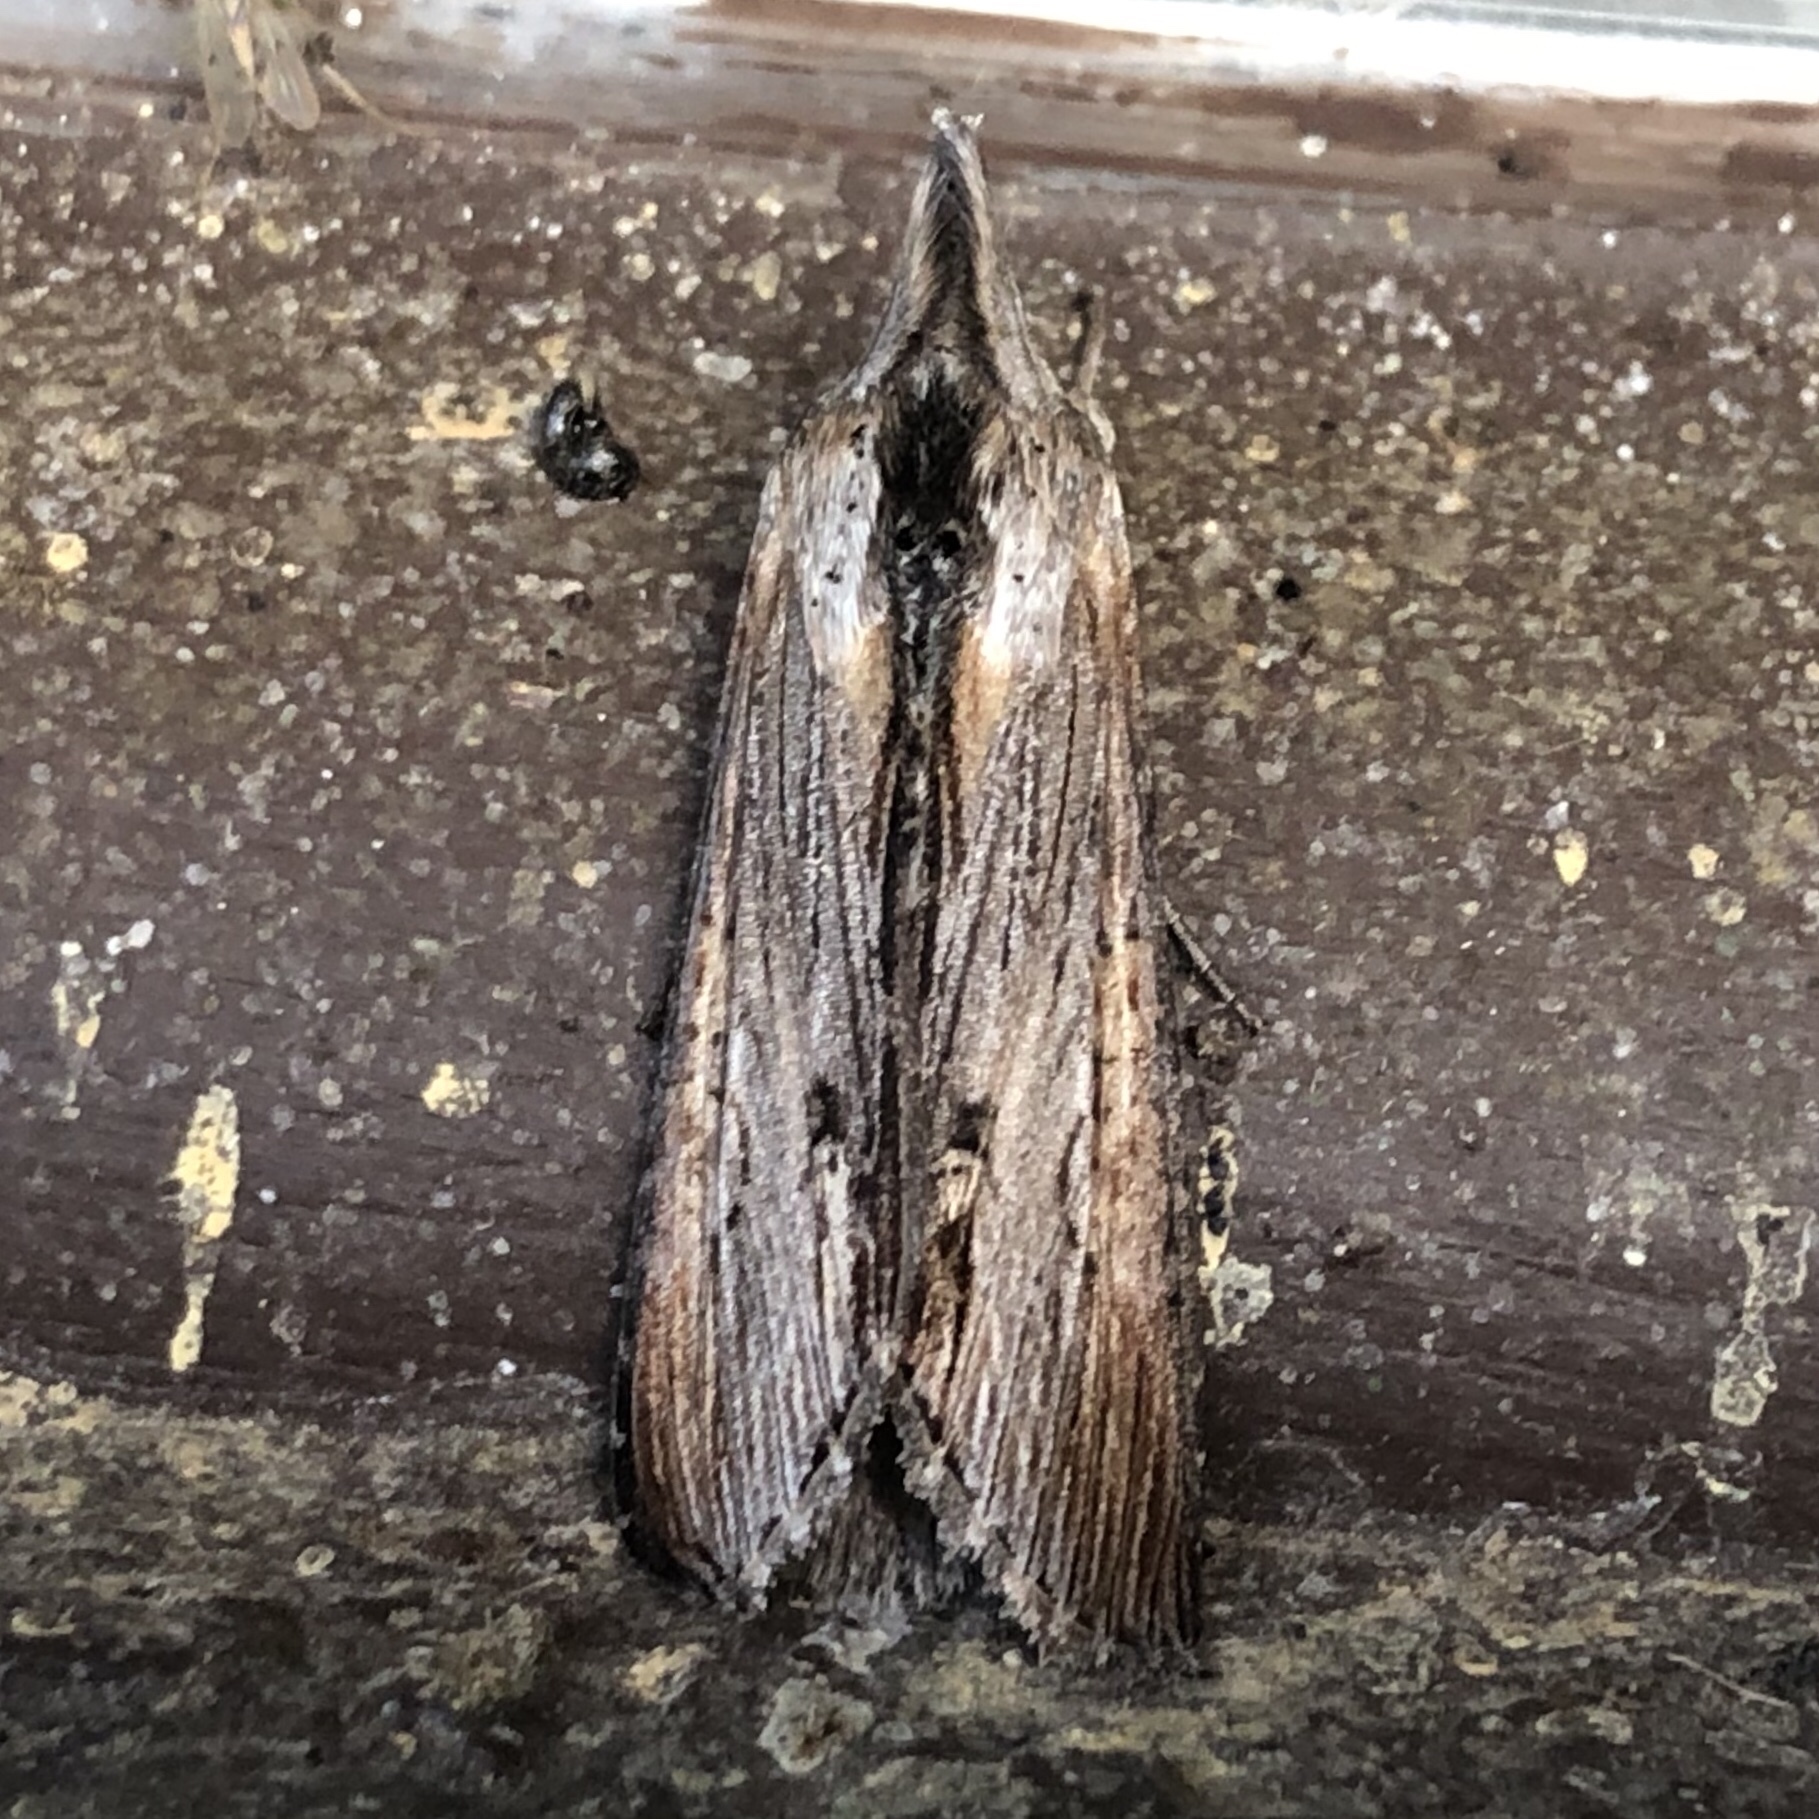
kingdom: Animalia
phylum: Arthropoda
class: Insecta
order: Lepidoptera
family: Noctuidae
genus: Cucullia
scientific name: Cucullia asteroides
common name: Asteroid moth
